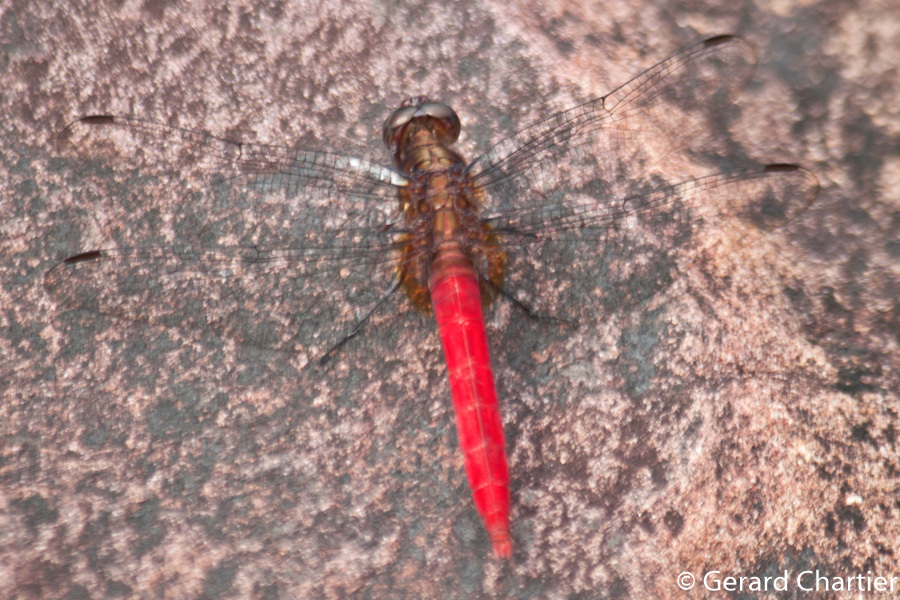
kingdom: Animalia
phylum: Arthropoda
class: Insecta
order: Odonata
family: Libellulidae
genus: Orthetrum
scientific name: Orthetrum chrysis
